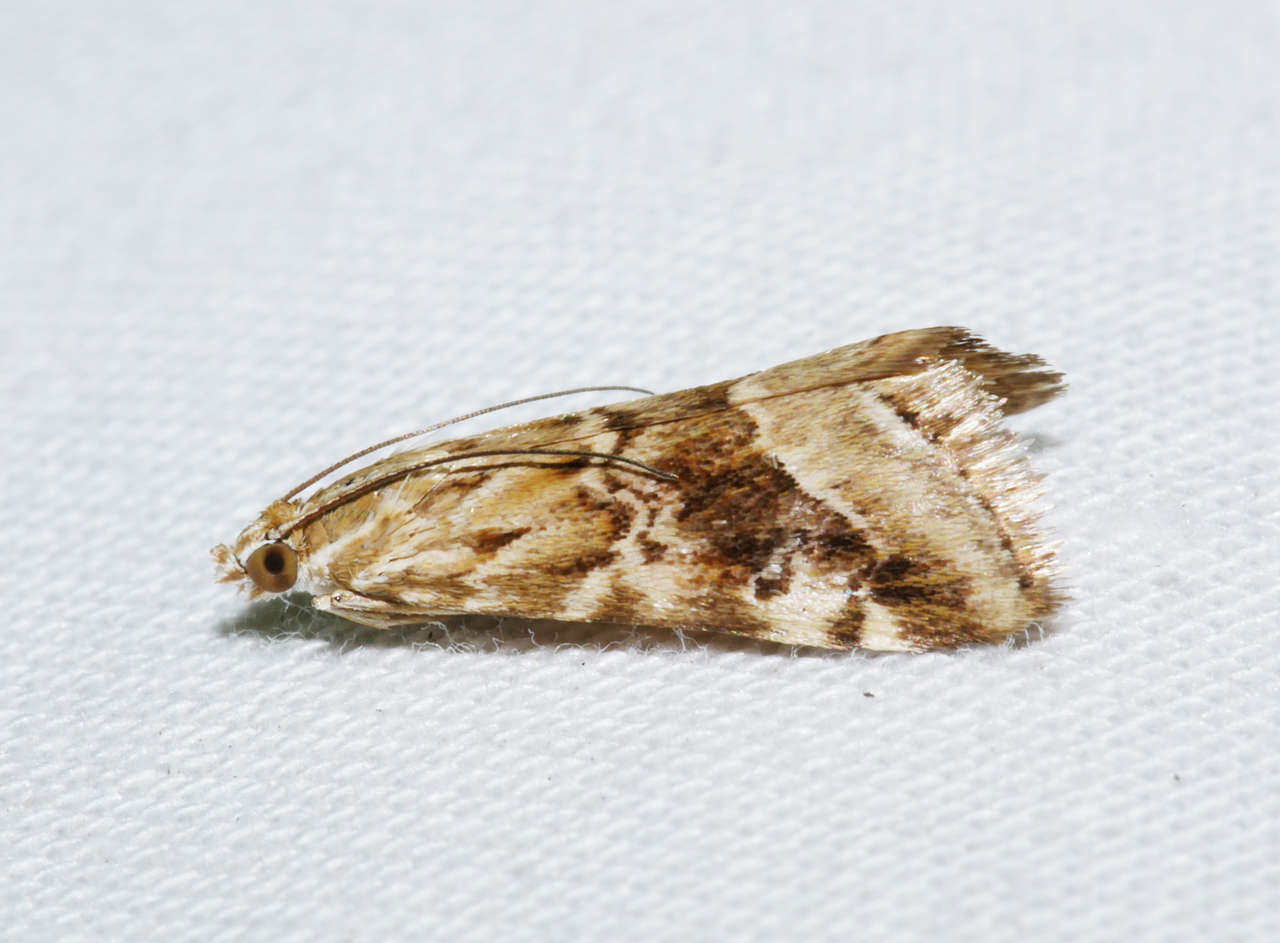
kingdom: Animalia
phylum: Arthropoda
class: Insecta
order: Lepidoptera
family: Crambidae
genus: Hellula
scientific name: Hellula hydralis
